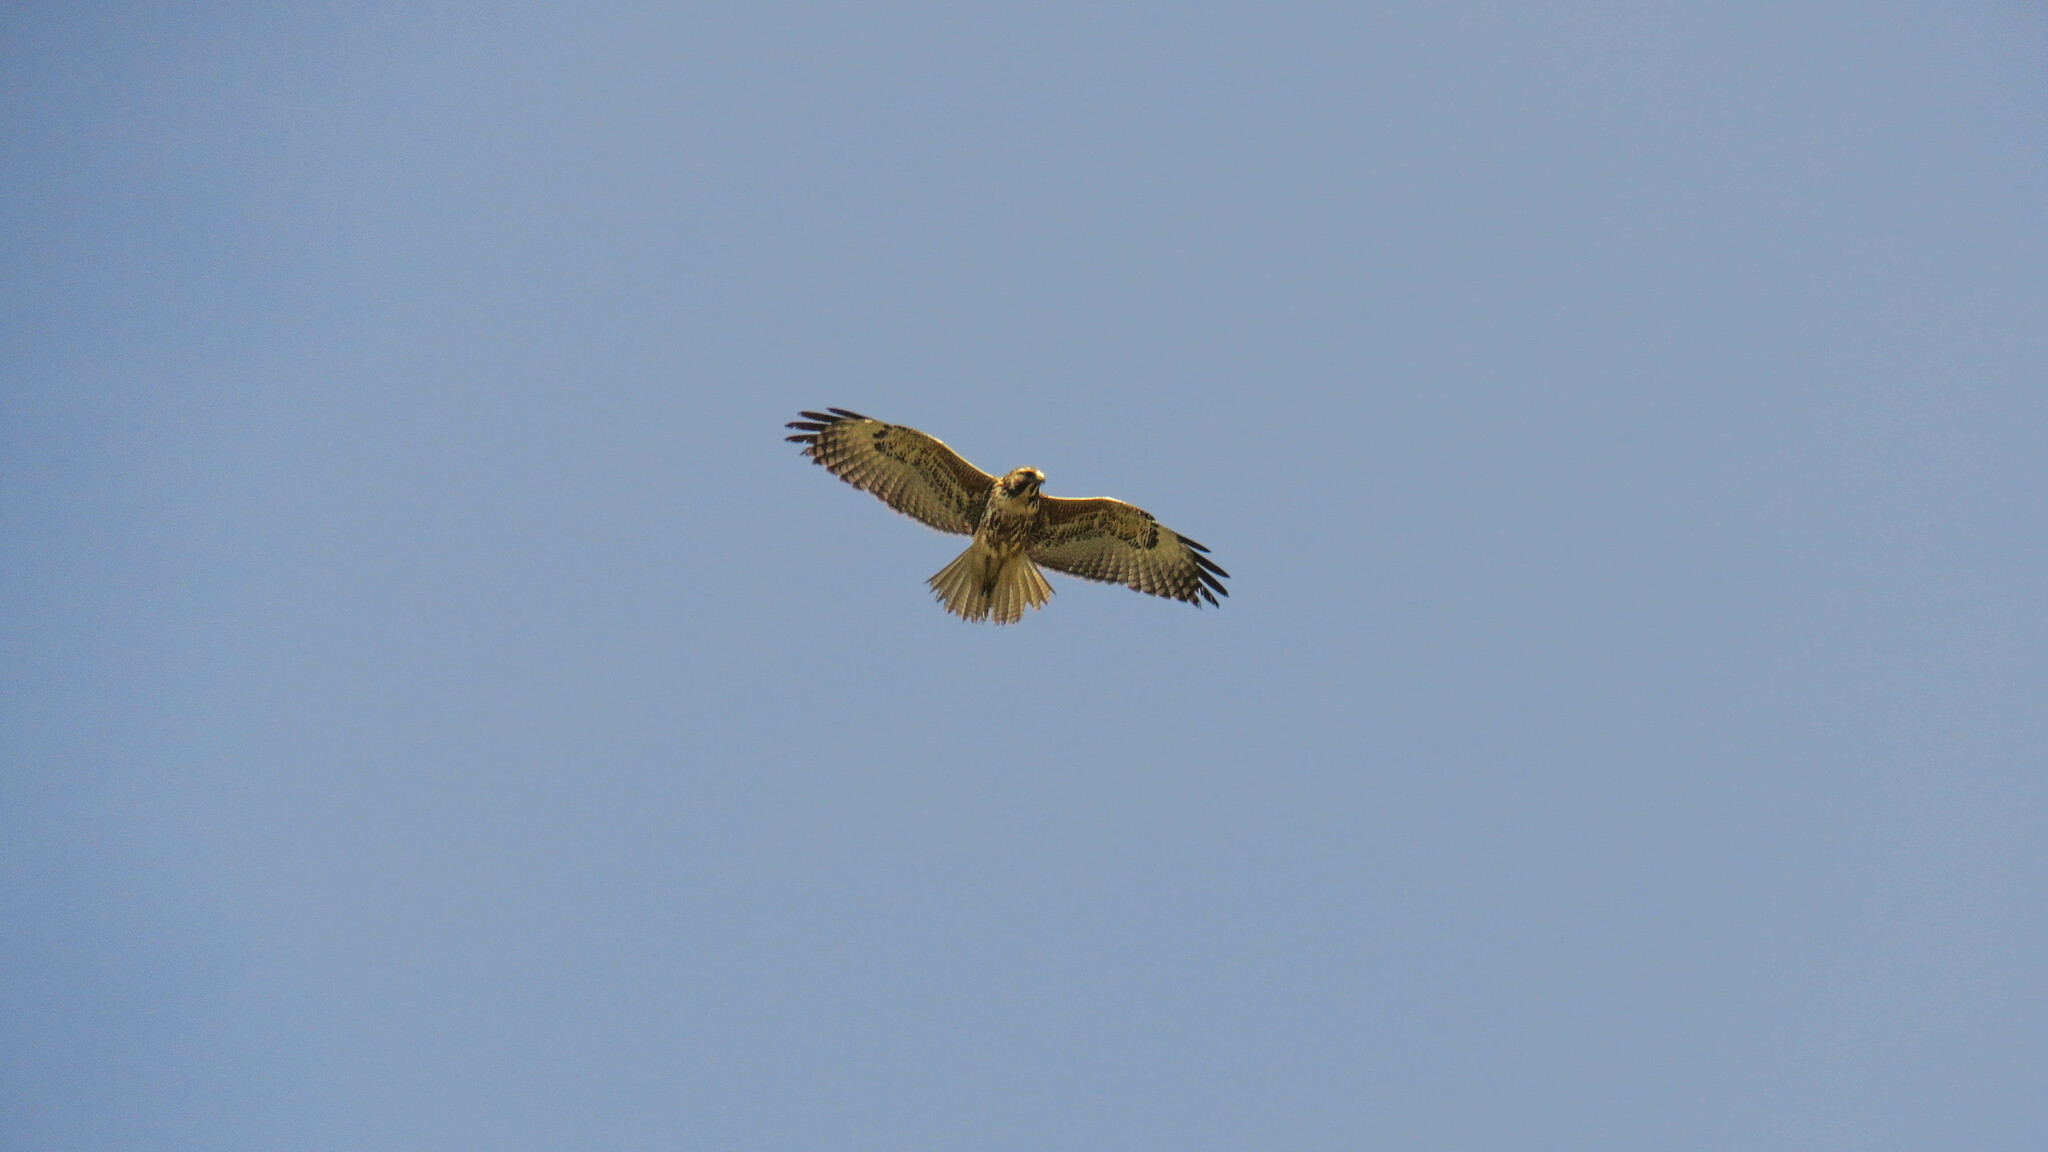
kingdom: Animalia
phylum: Chordata
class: Aves
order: Accipitriformes
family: Accipitridae
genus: Buteo
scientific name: Buteo polyosoma
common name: Variable hawk
